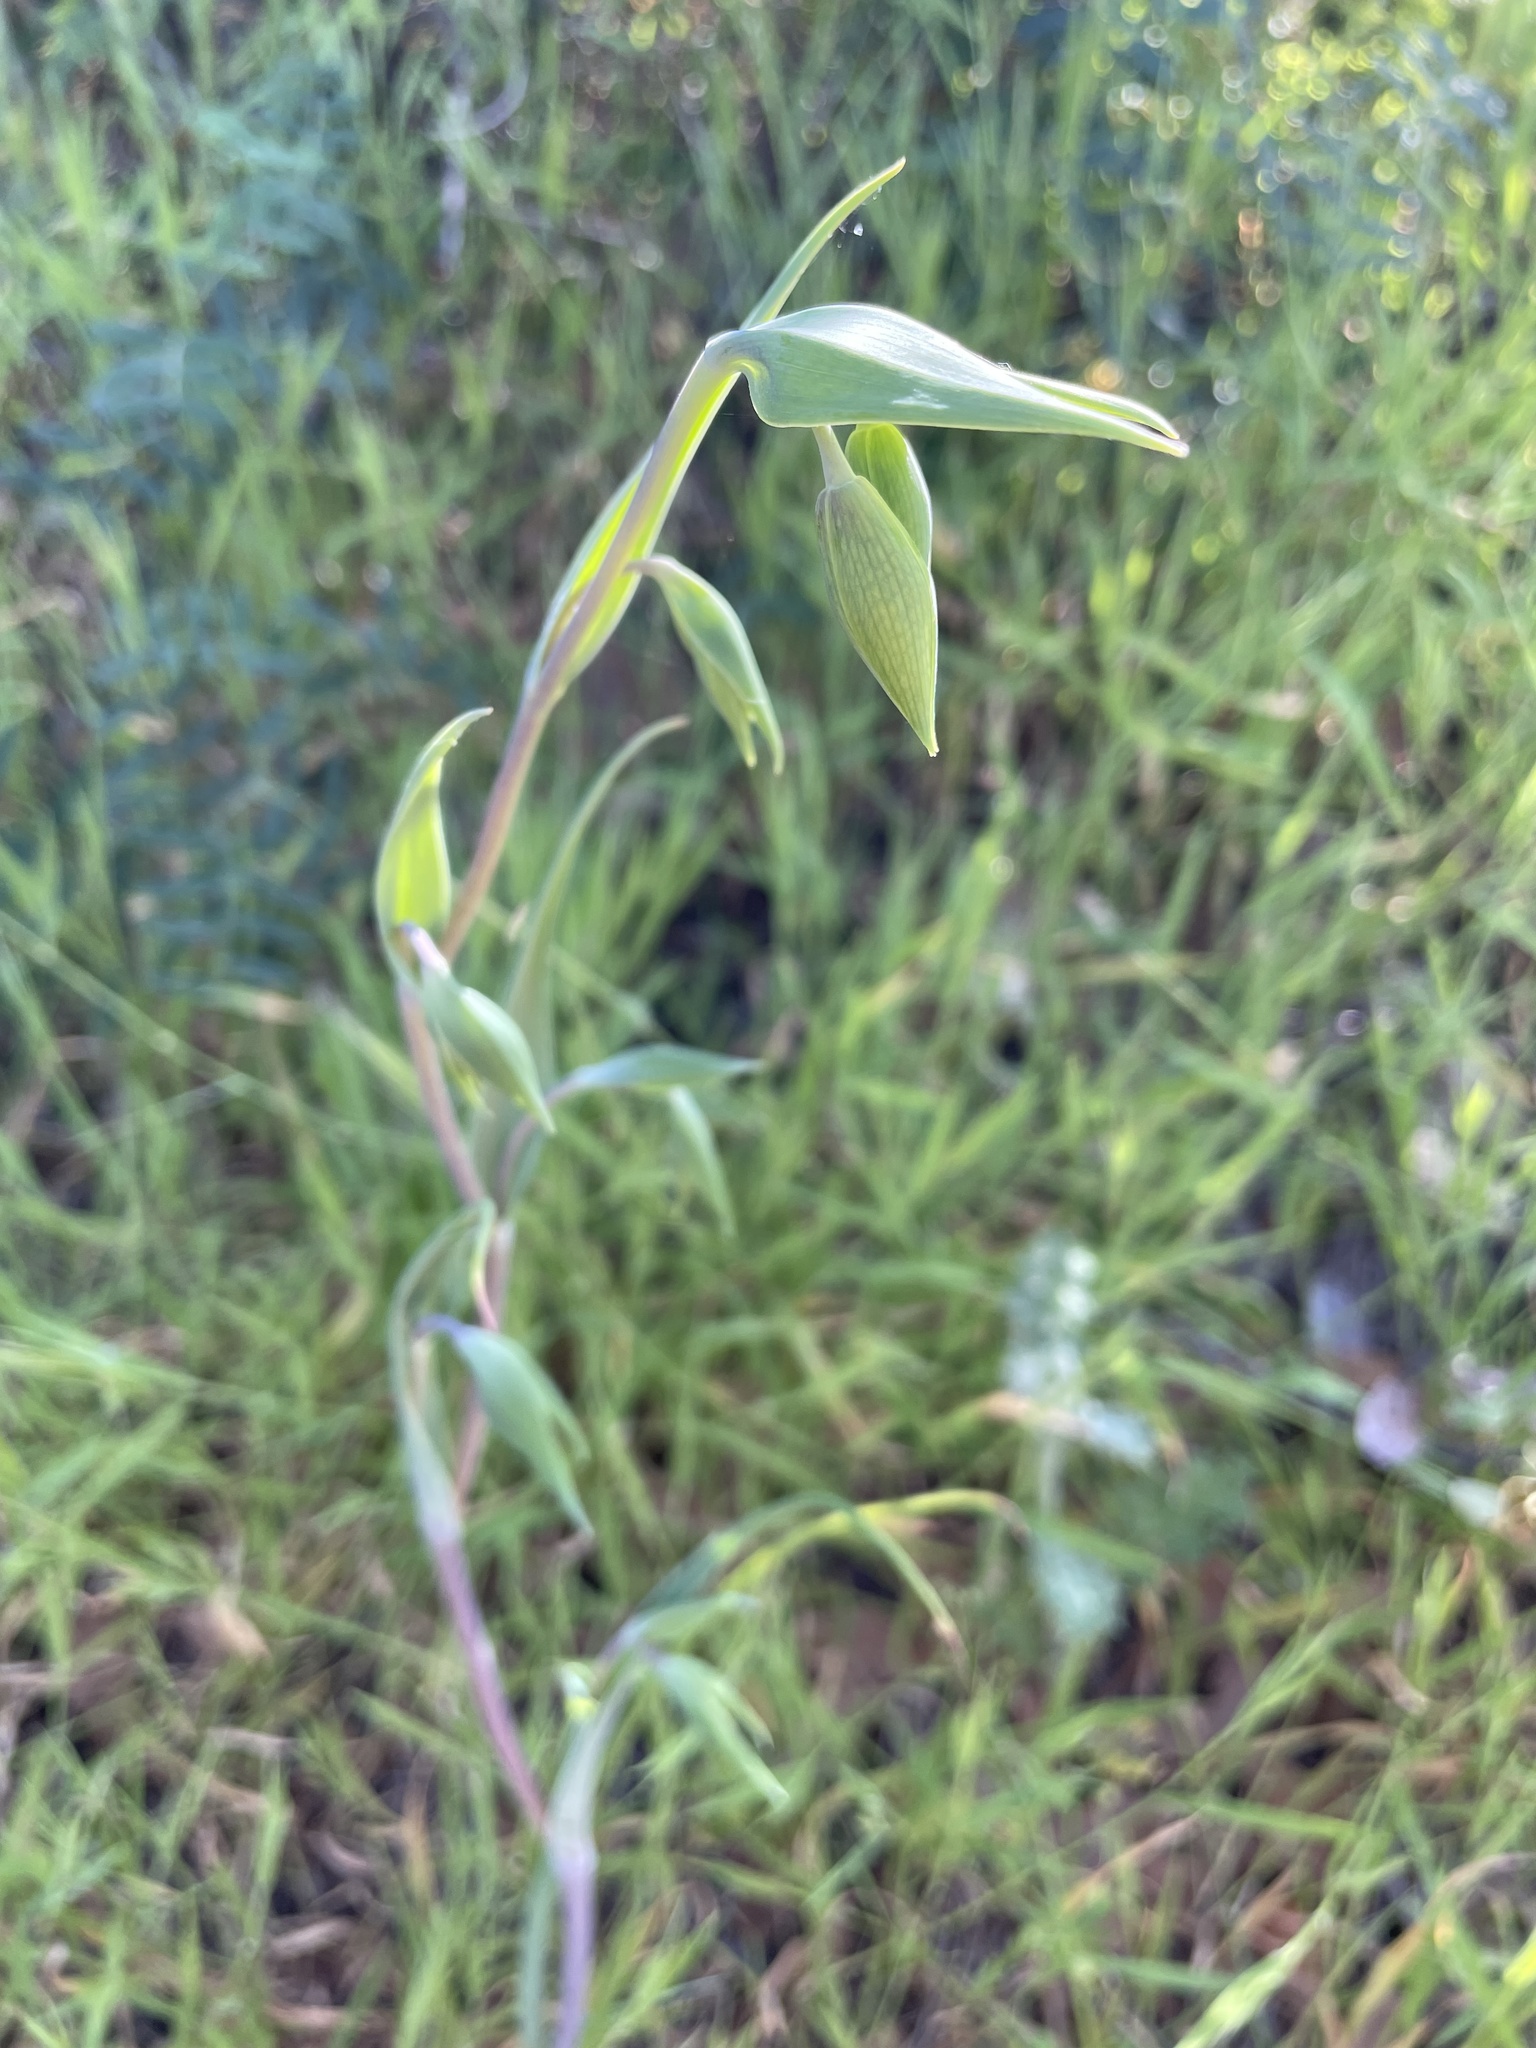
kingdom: Plantae
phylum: Tracheophyta
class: Liliopsida
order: Liliales
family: Liliaceae
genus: Calochortus
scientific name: Calochortus albus
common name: Fairy-lantern
